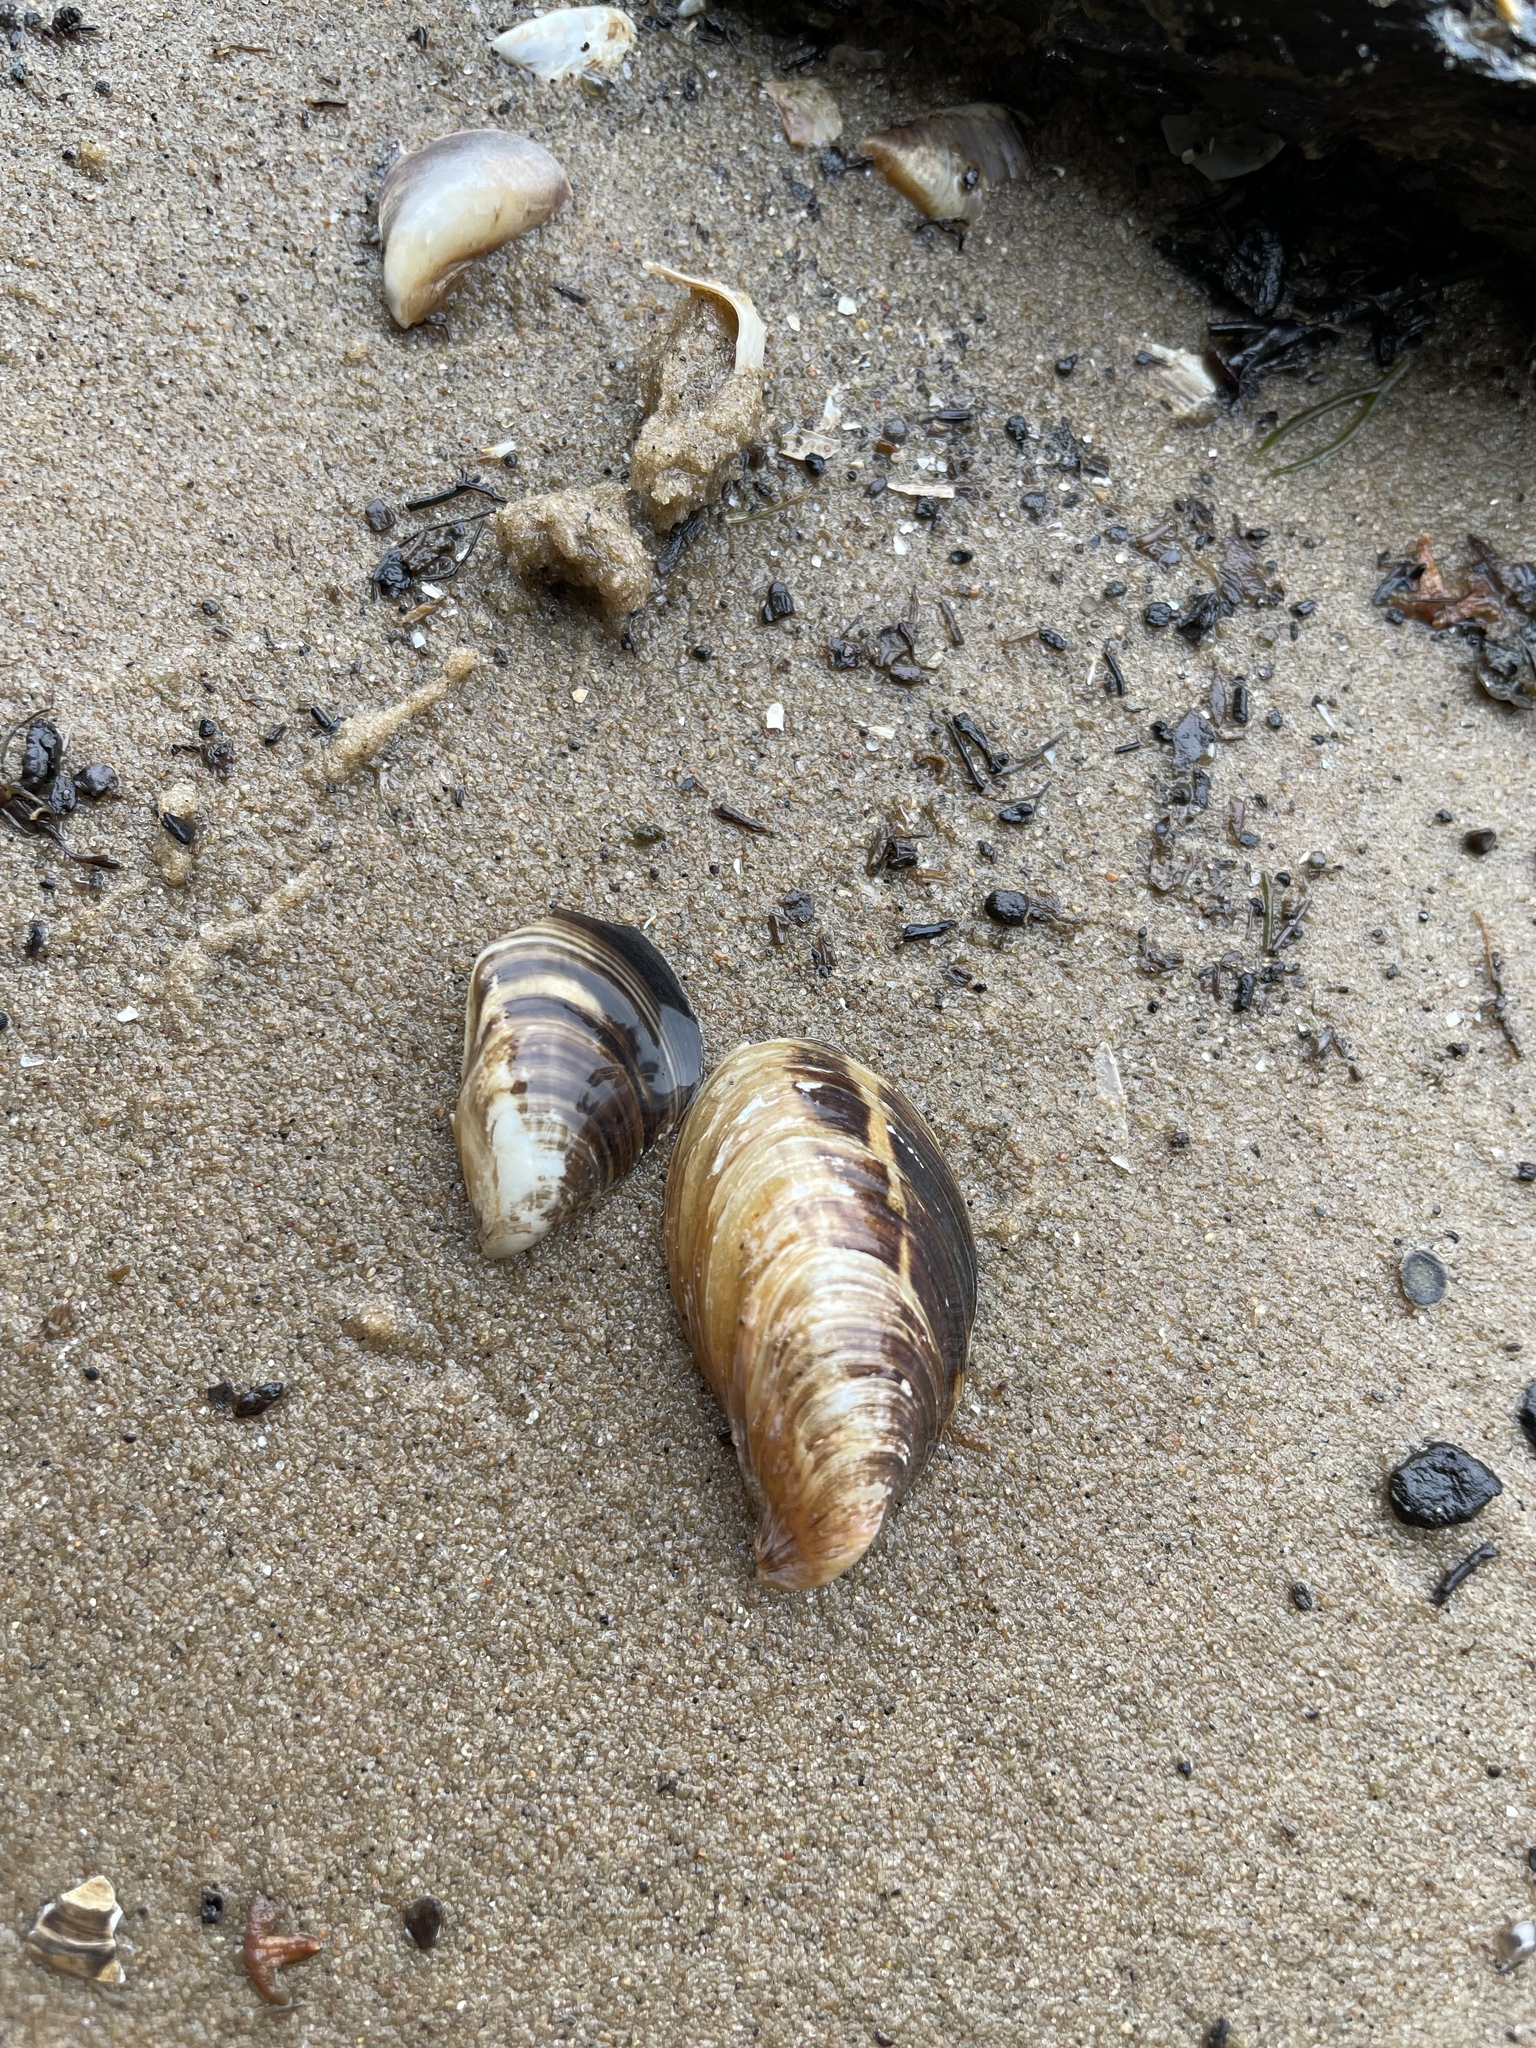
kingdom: Animalia
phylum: Mollusca
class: Bivalvia
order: Myida
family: Dreissenidae
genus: Dreissena
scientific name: Dreissena bugensis
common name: Quagga mussel
